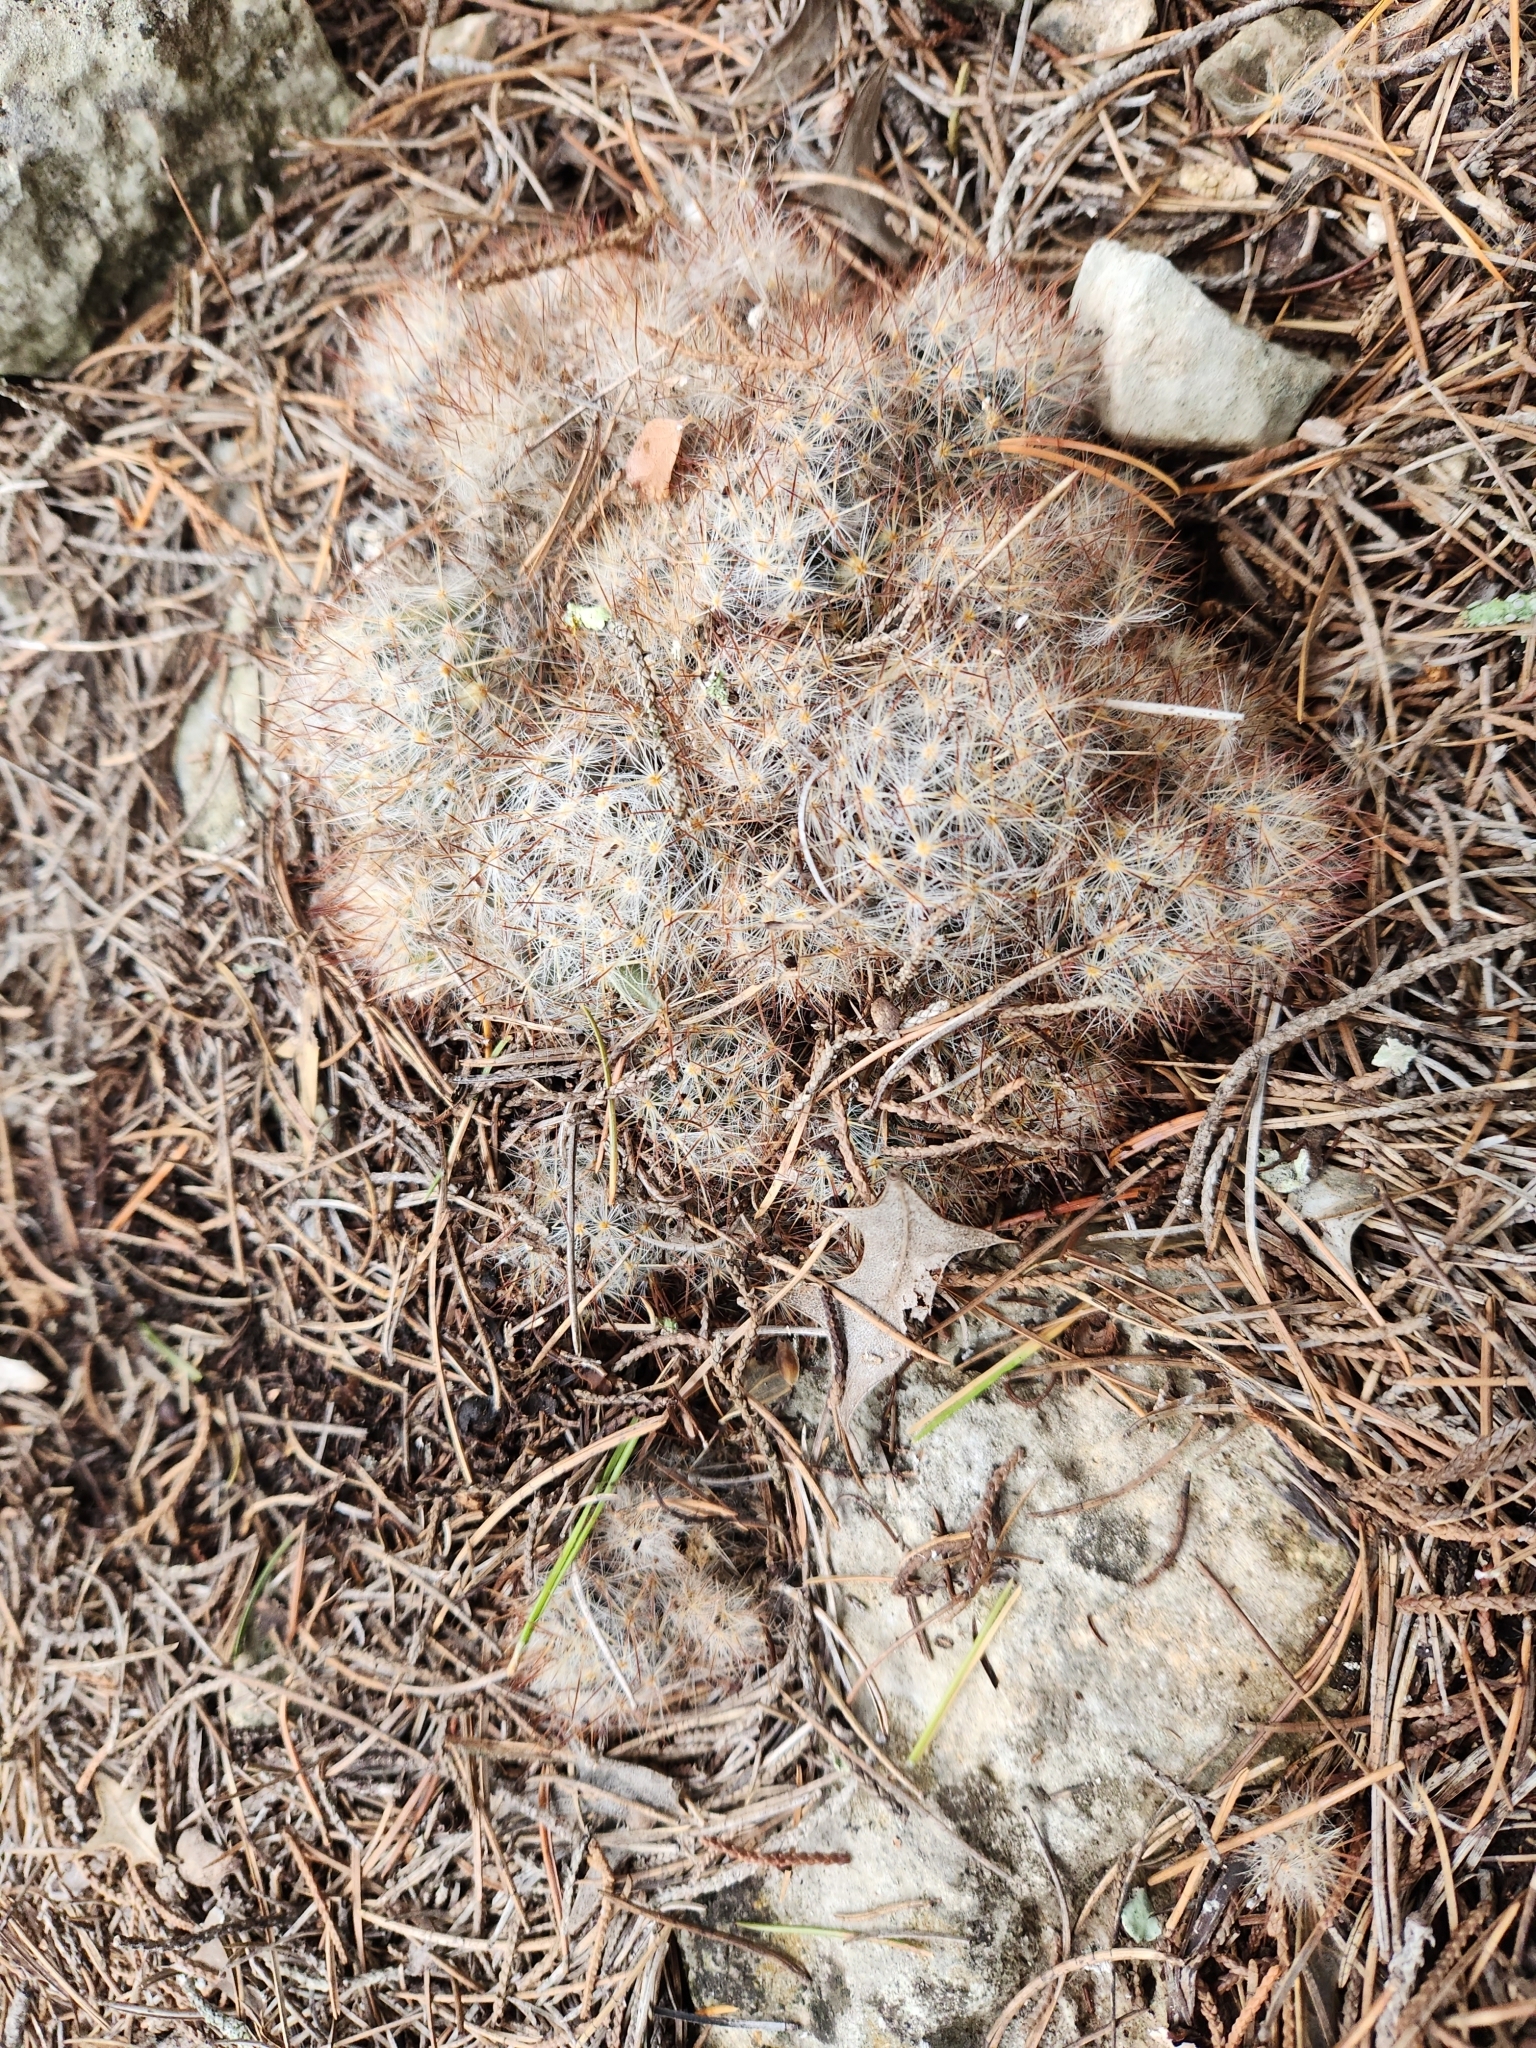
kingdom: Plantae
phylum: Tracheophyta
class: Magnoliopsida
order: Caryophyllales
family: Cactaceae
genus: Mammillaria
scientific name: Mammillaria prolifera
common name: Texas nipple cactus
